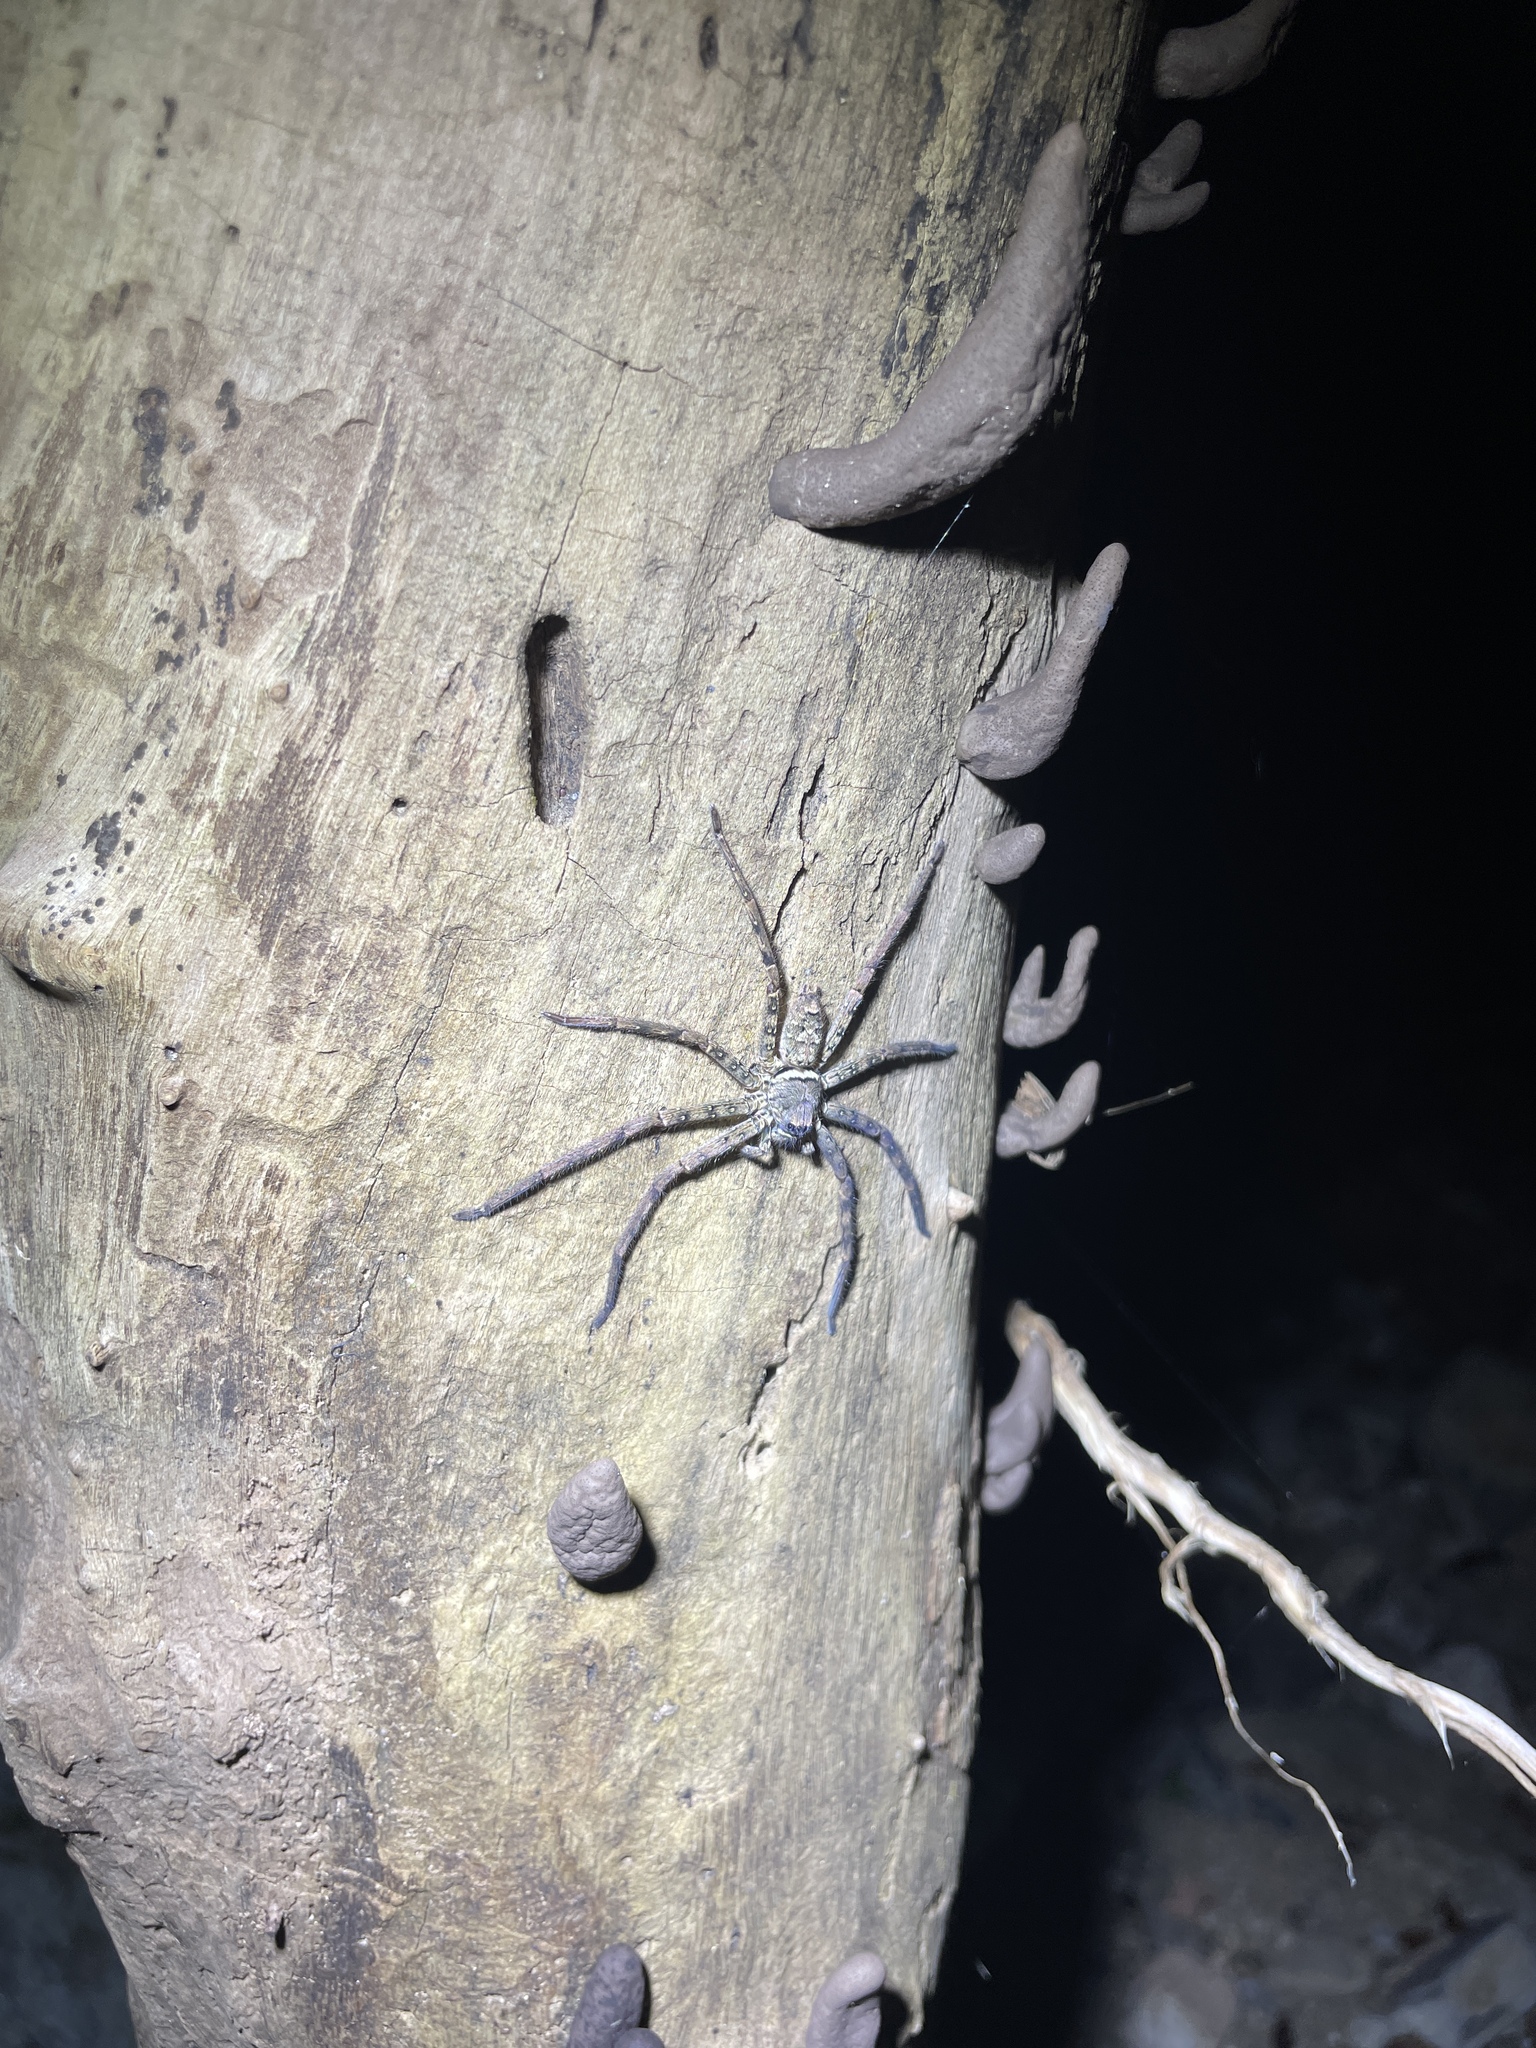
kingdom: Animalia
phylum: Arthropoda
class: Arachnida
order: Araneae
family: Sparassidae
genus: Heteropoda
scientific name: Heteropoda venatoria
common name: Huntsman spider
